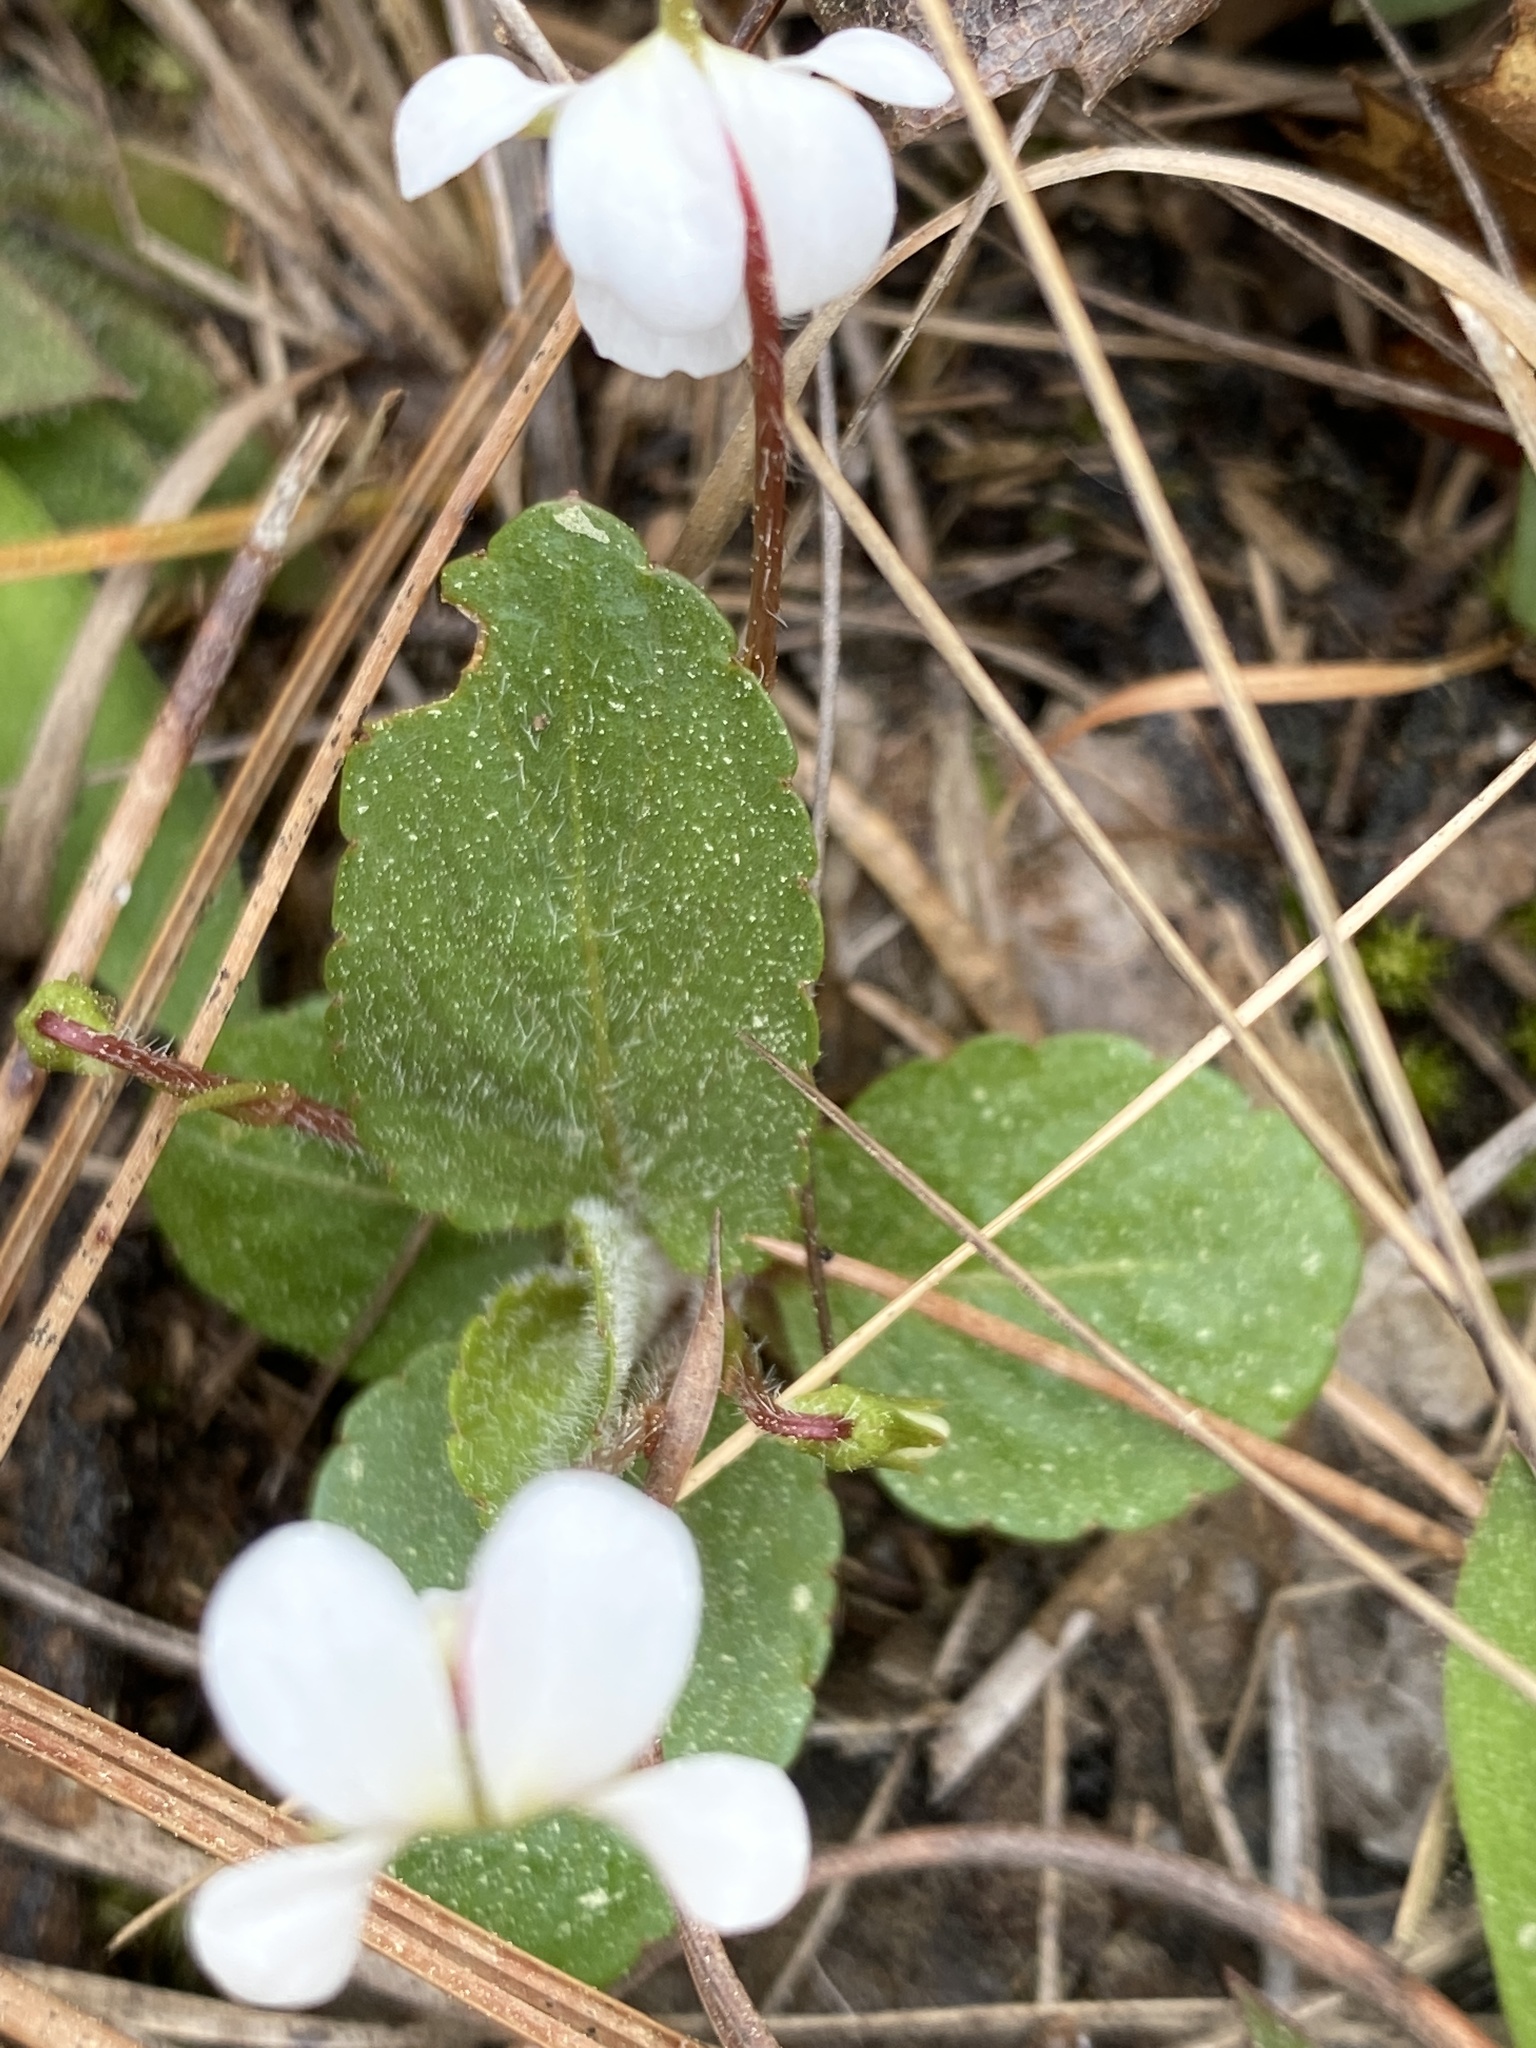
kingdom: Plantae
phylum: Tracheophyta
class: Magnoliopsida
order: Malpighiales
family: Violaceae
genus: Viola
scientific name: Viola primulifolia
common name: Primrose-leaf violet
